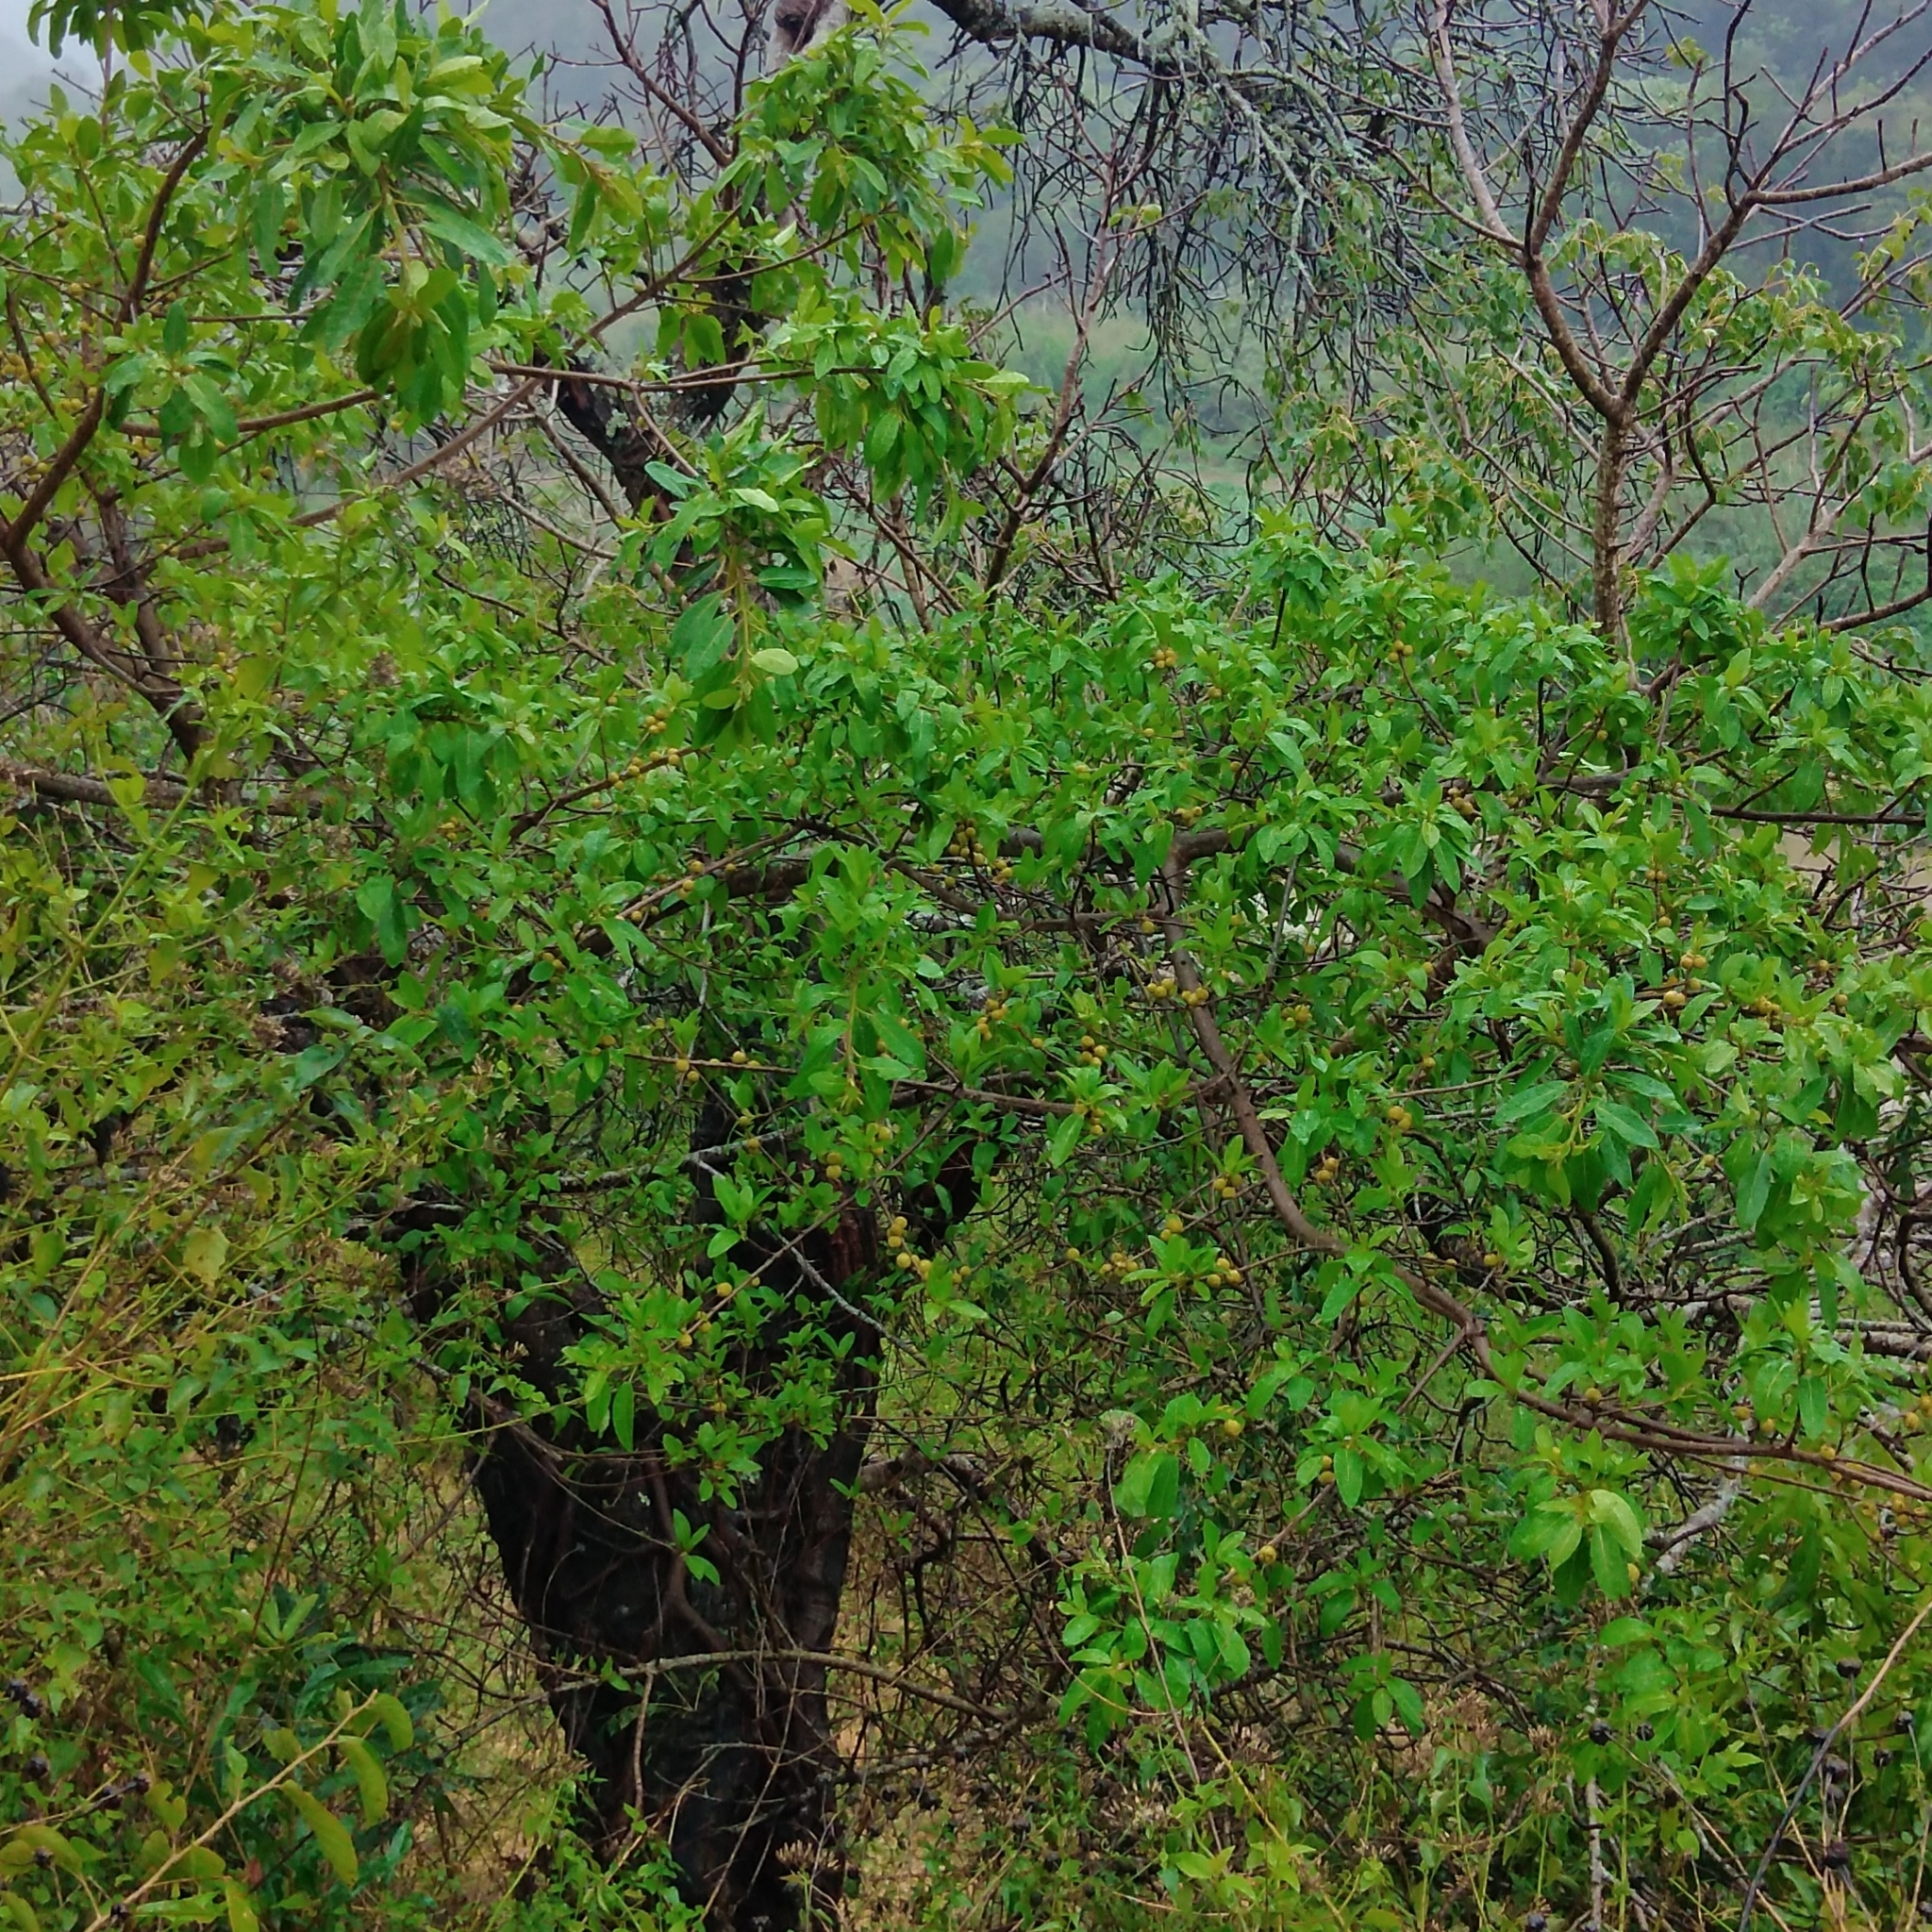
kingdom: Plantae
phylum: Tracheophyta
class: Magnoliopsida
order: Rosales
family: Moraceae
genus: Ficus
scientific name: Ficus thonningii
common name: Fig
